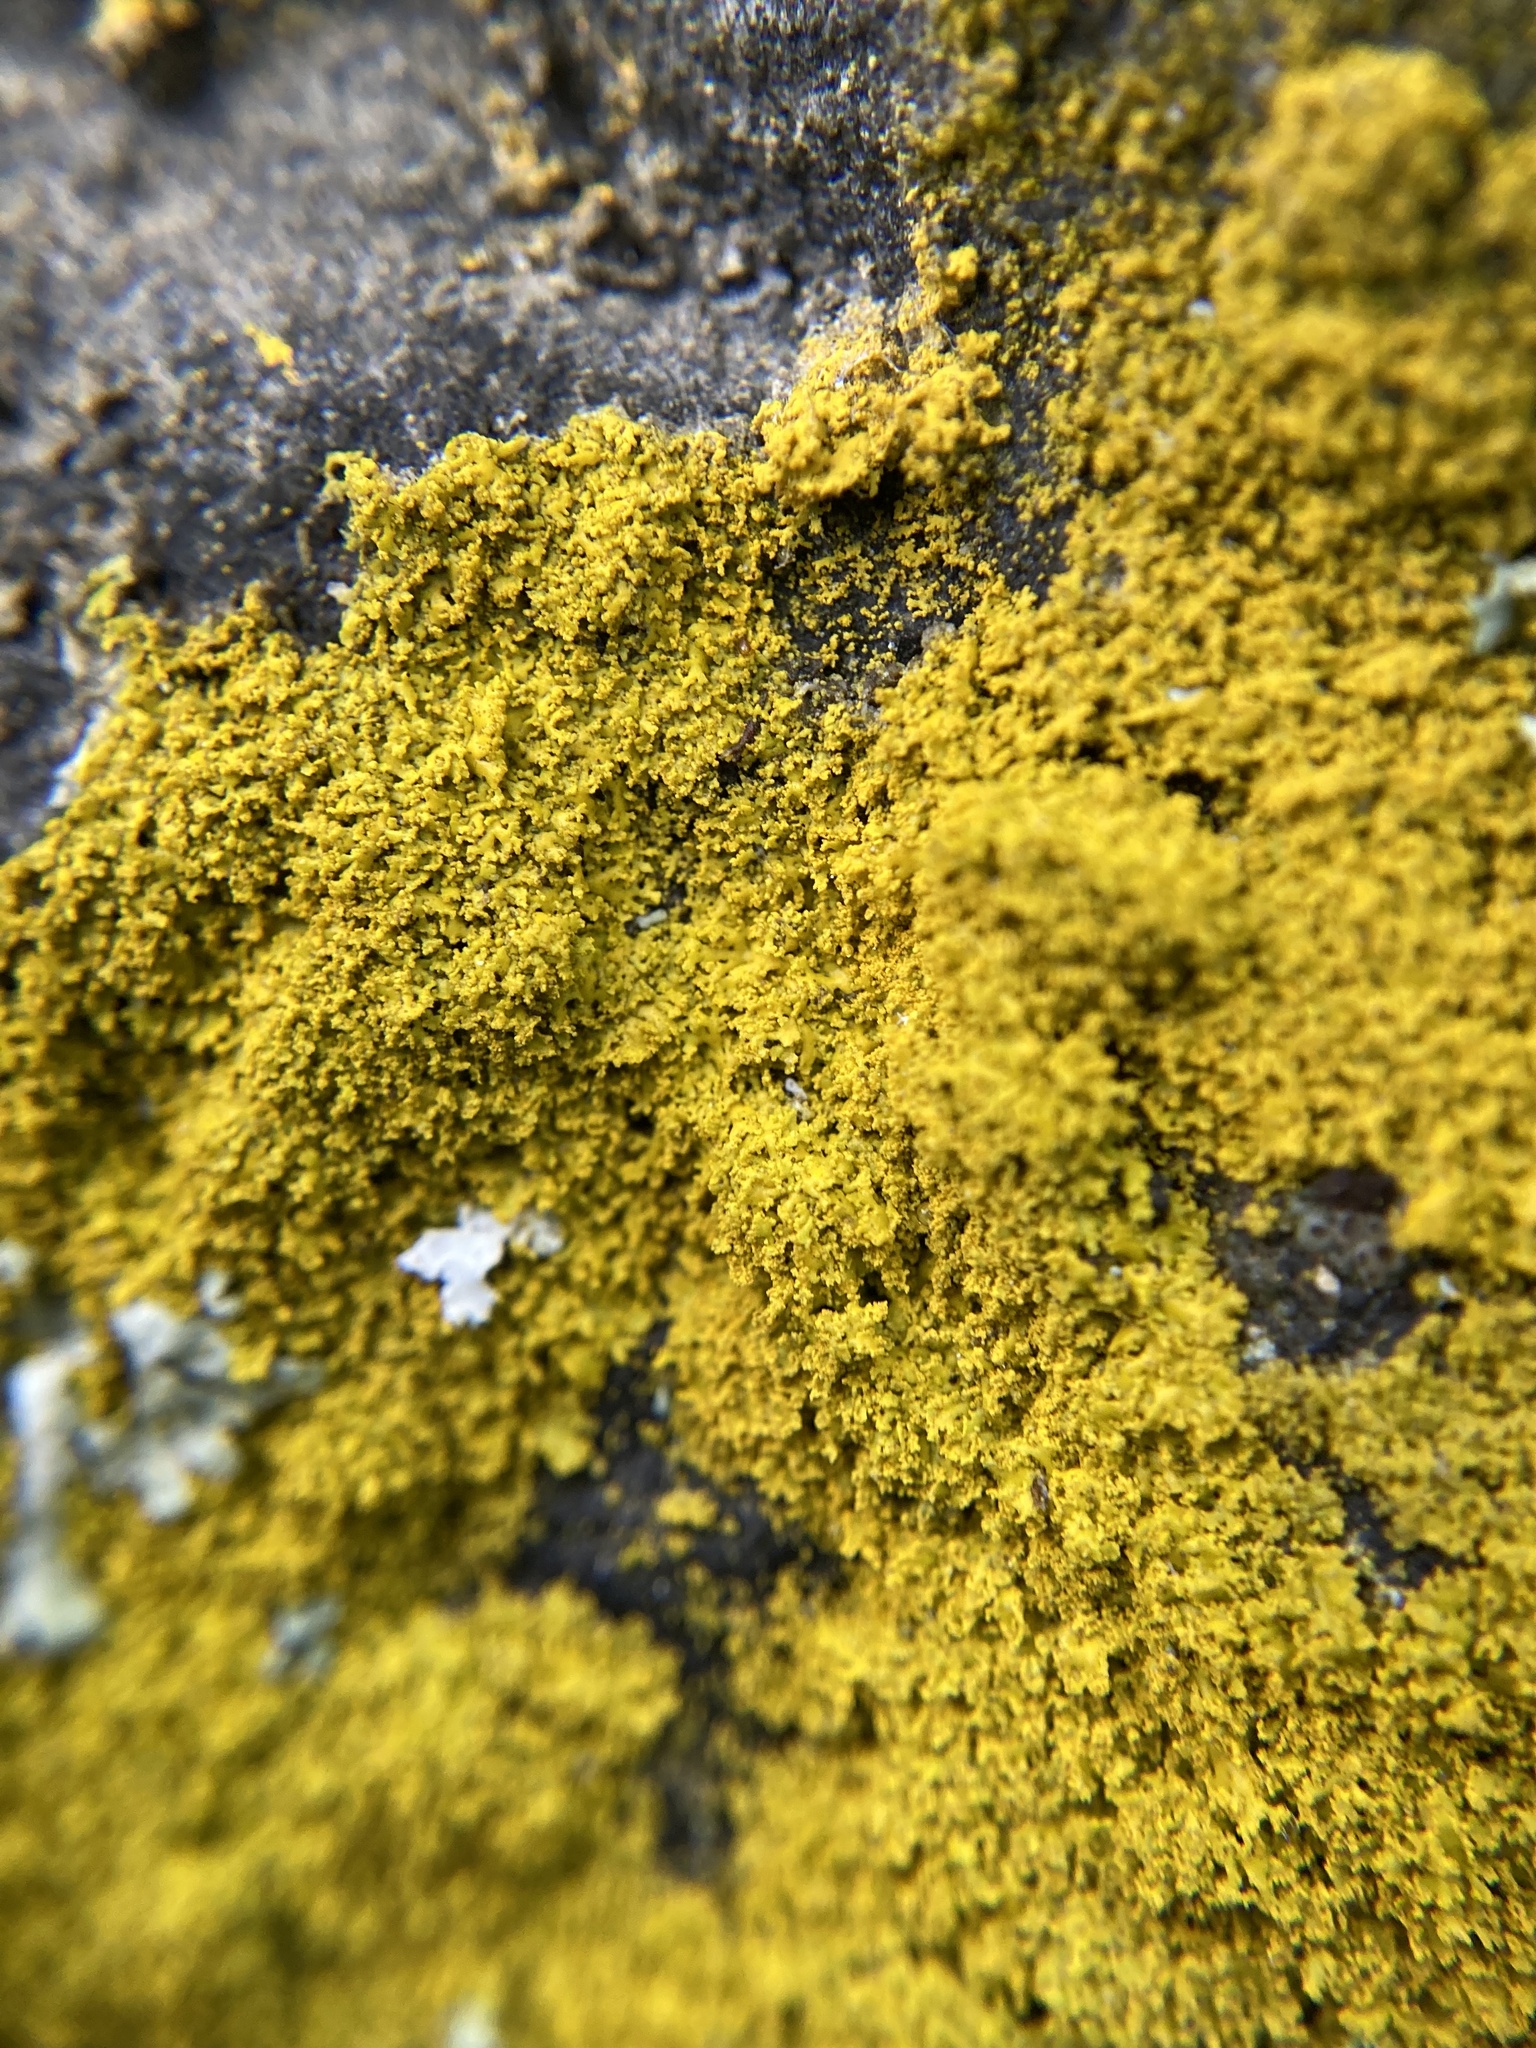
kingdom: Fungi
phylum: Ascomycota
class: Lecanoromycetes
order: Teloschistales
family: Teloschistaceae
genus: Xanthoria
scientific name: Xanthoria parietina
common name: Common orange lichen
